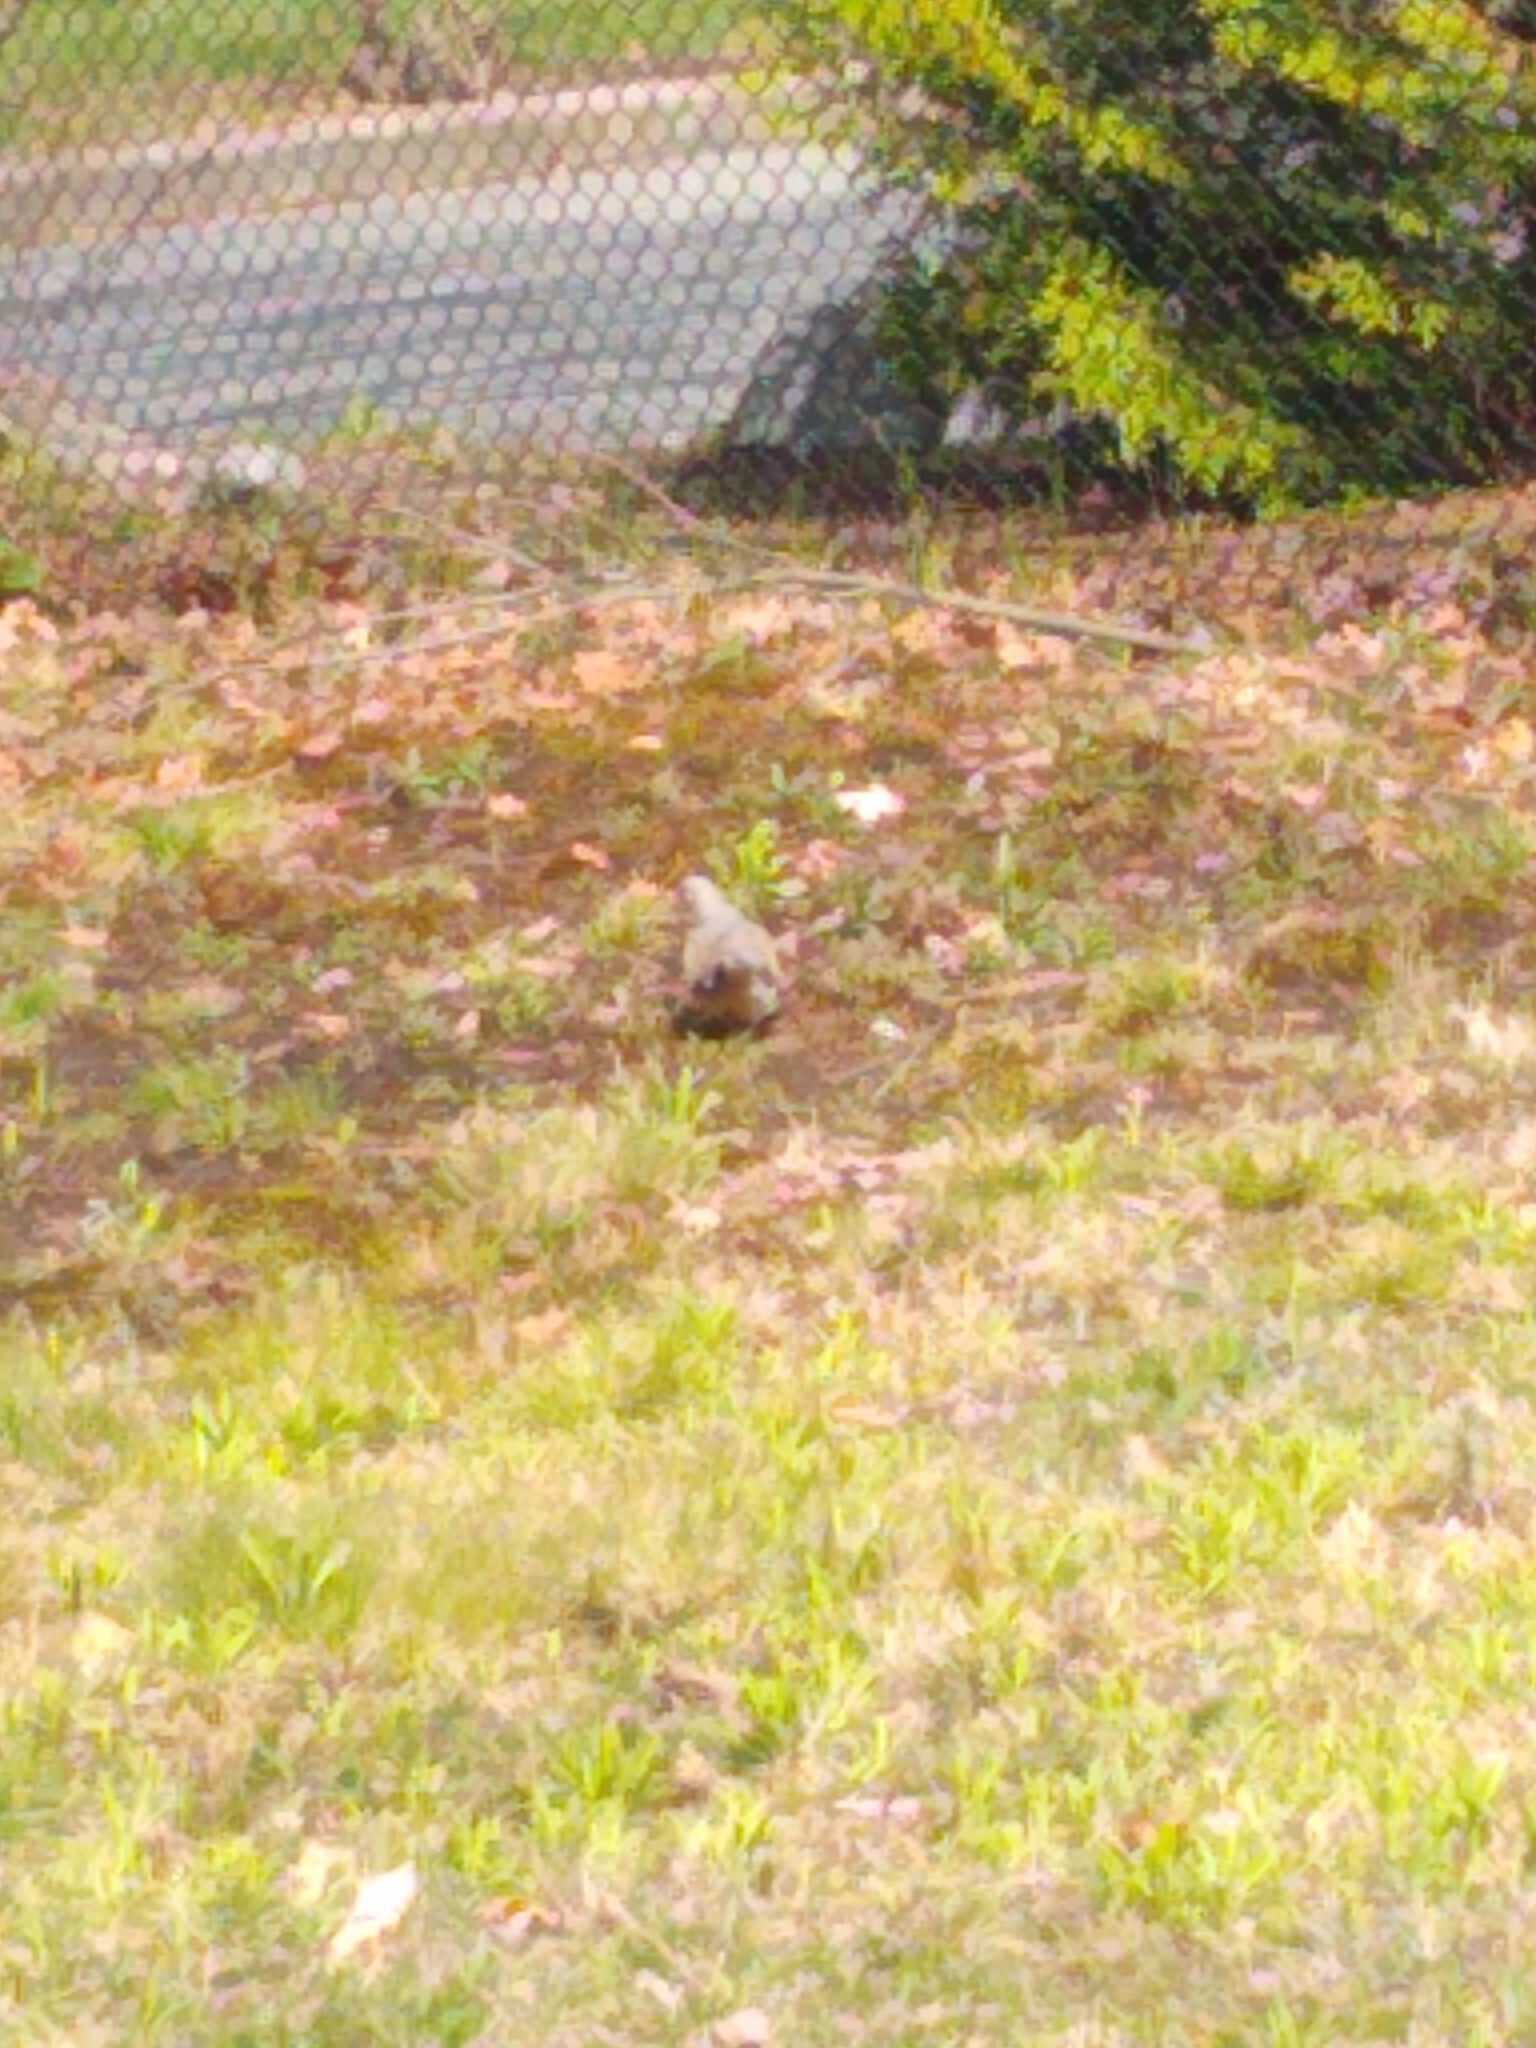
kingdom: Animalia
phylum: Chordata
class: Aves
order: Columbiformes
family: Columbidae
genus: Zenaida
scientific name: Zenaida macroura
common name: Mourning dove
